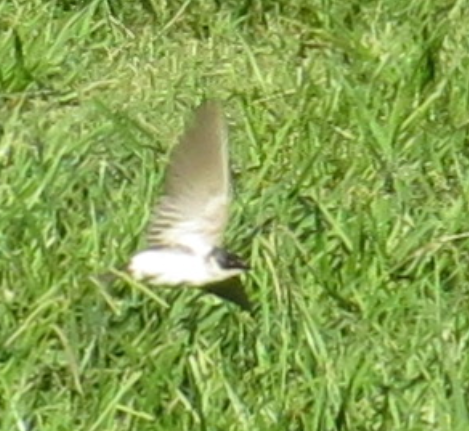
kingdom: Animalia
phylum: Chordata
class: Aves
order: Passeriformes
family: Hirundinidae
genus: Tachycineta
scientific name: Tachycineta leucorrhoa
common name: White-rumped swallow
